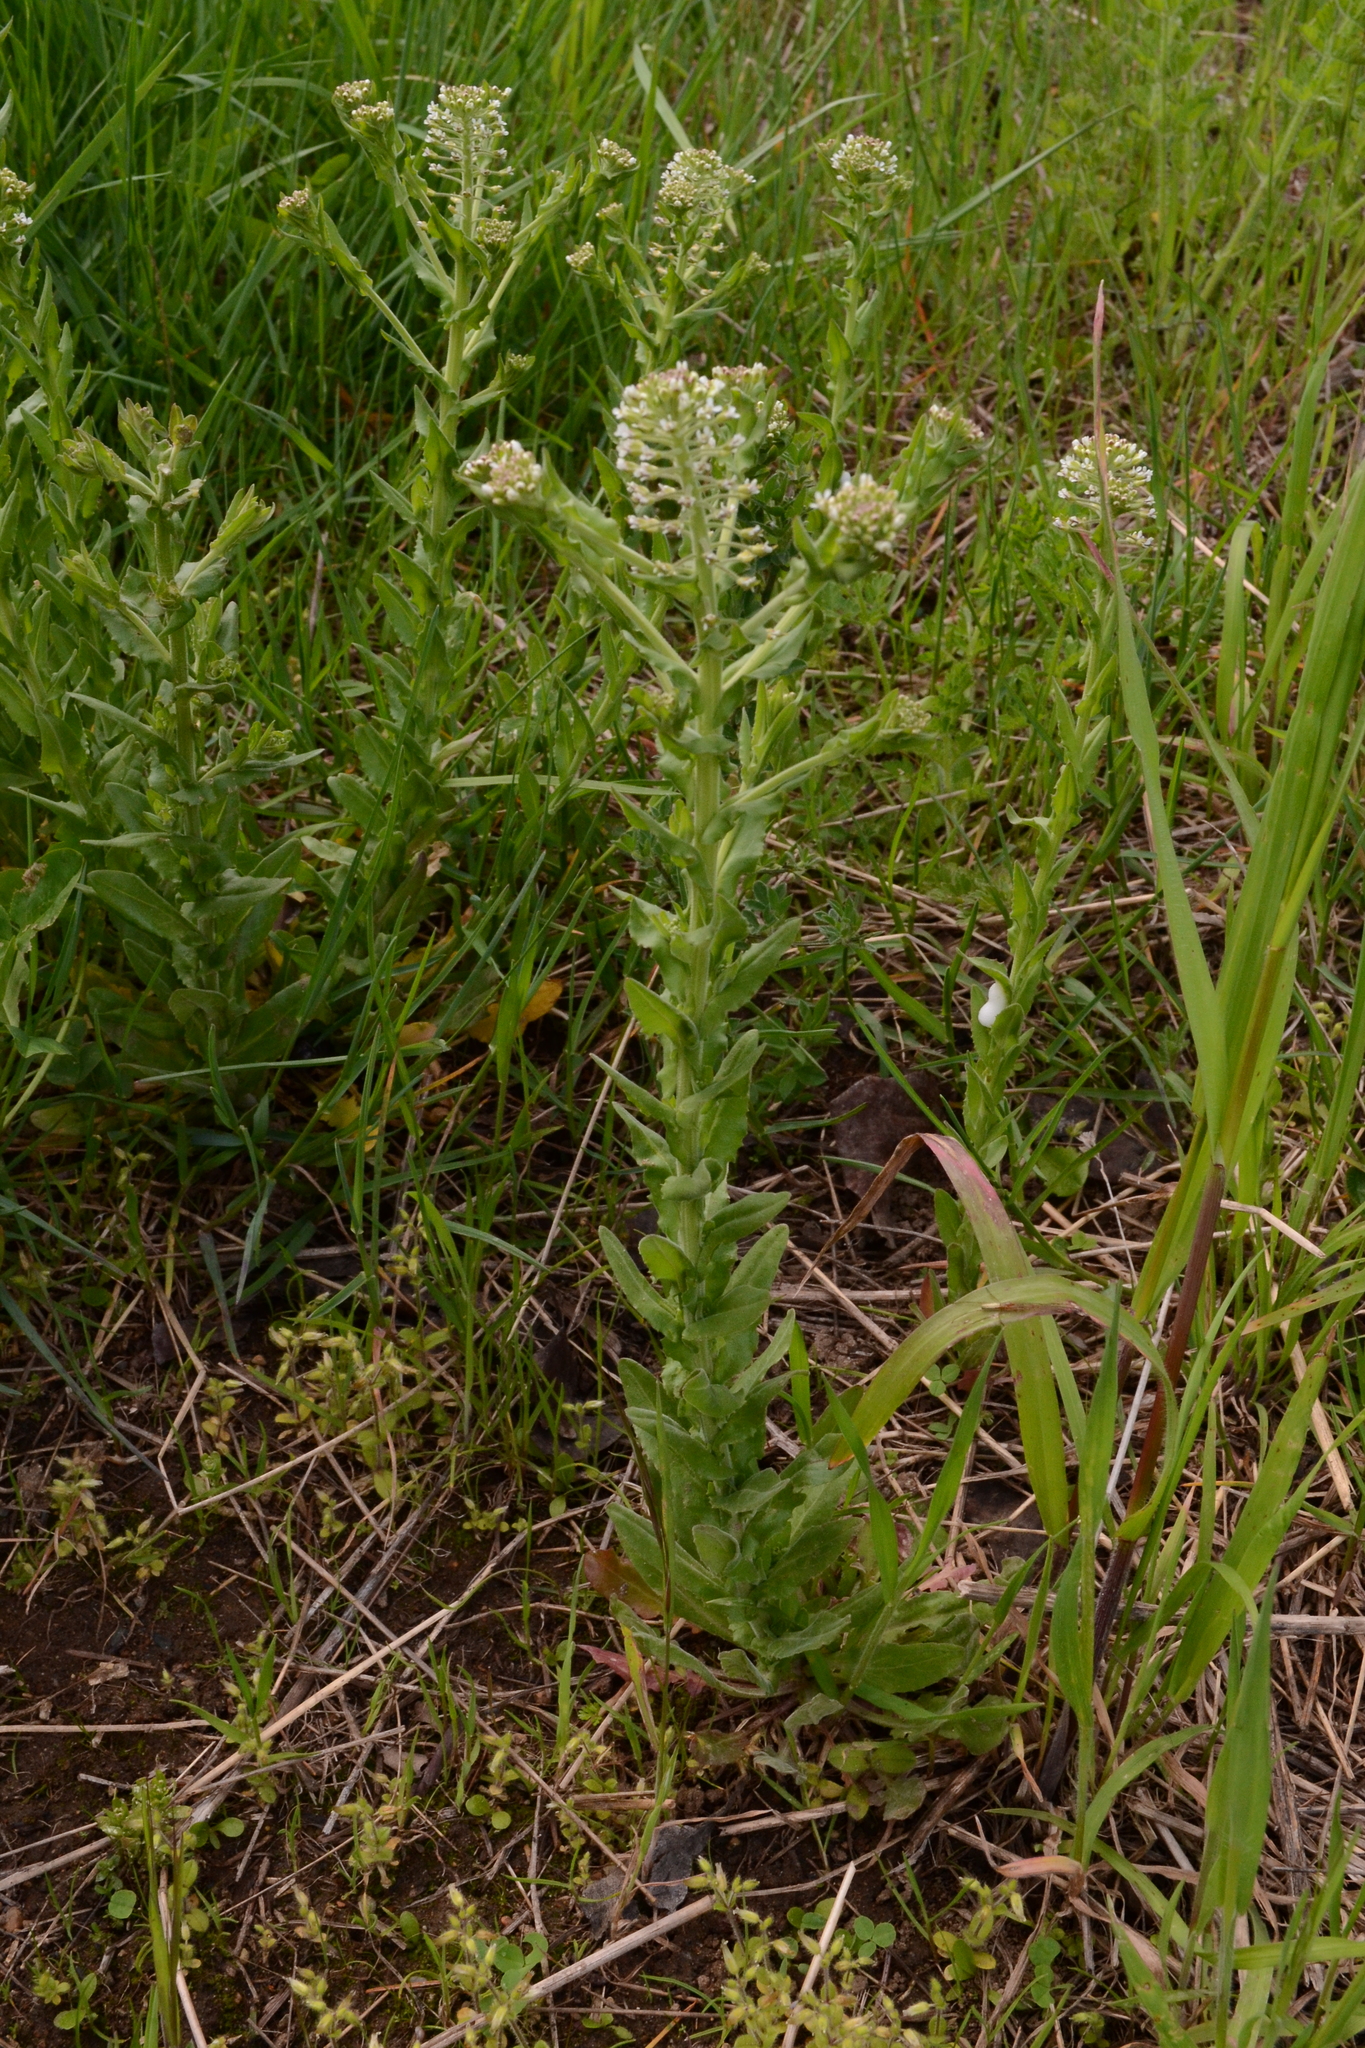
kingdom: Plantae
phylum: Tracheophyta
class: Magnoliopsida
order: Brassicales
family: Brassicaceae
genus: Lepidium
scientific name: Lepidium campestre
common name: Field pepperwort
